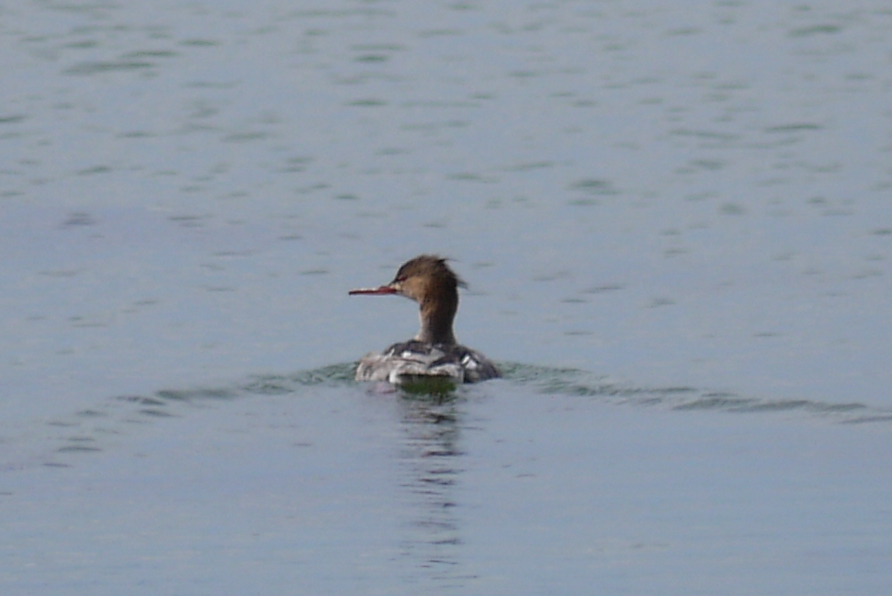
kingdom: Animalia
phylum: Chordata
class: Aves
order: Anseriformes
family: Anatidae
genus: Mergus
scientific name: Mergus serrator
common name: Red-breasted merganser
